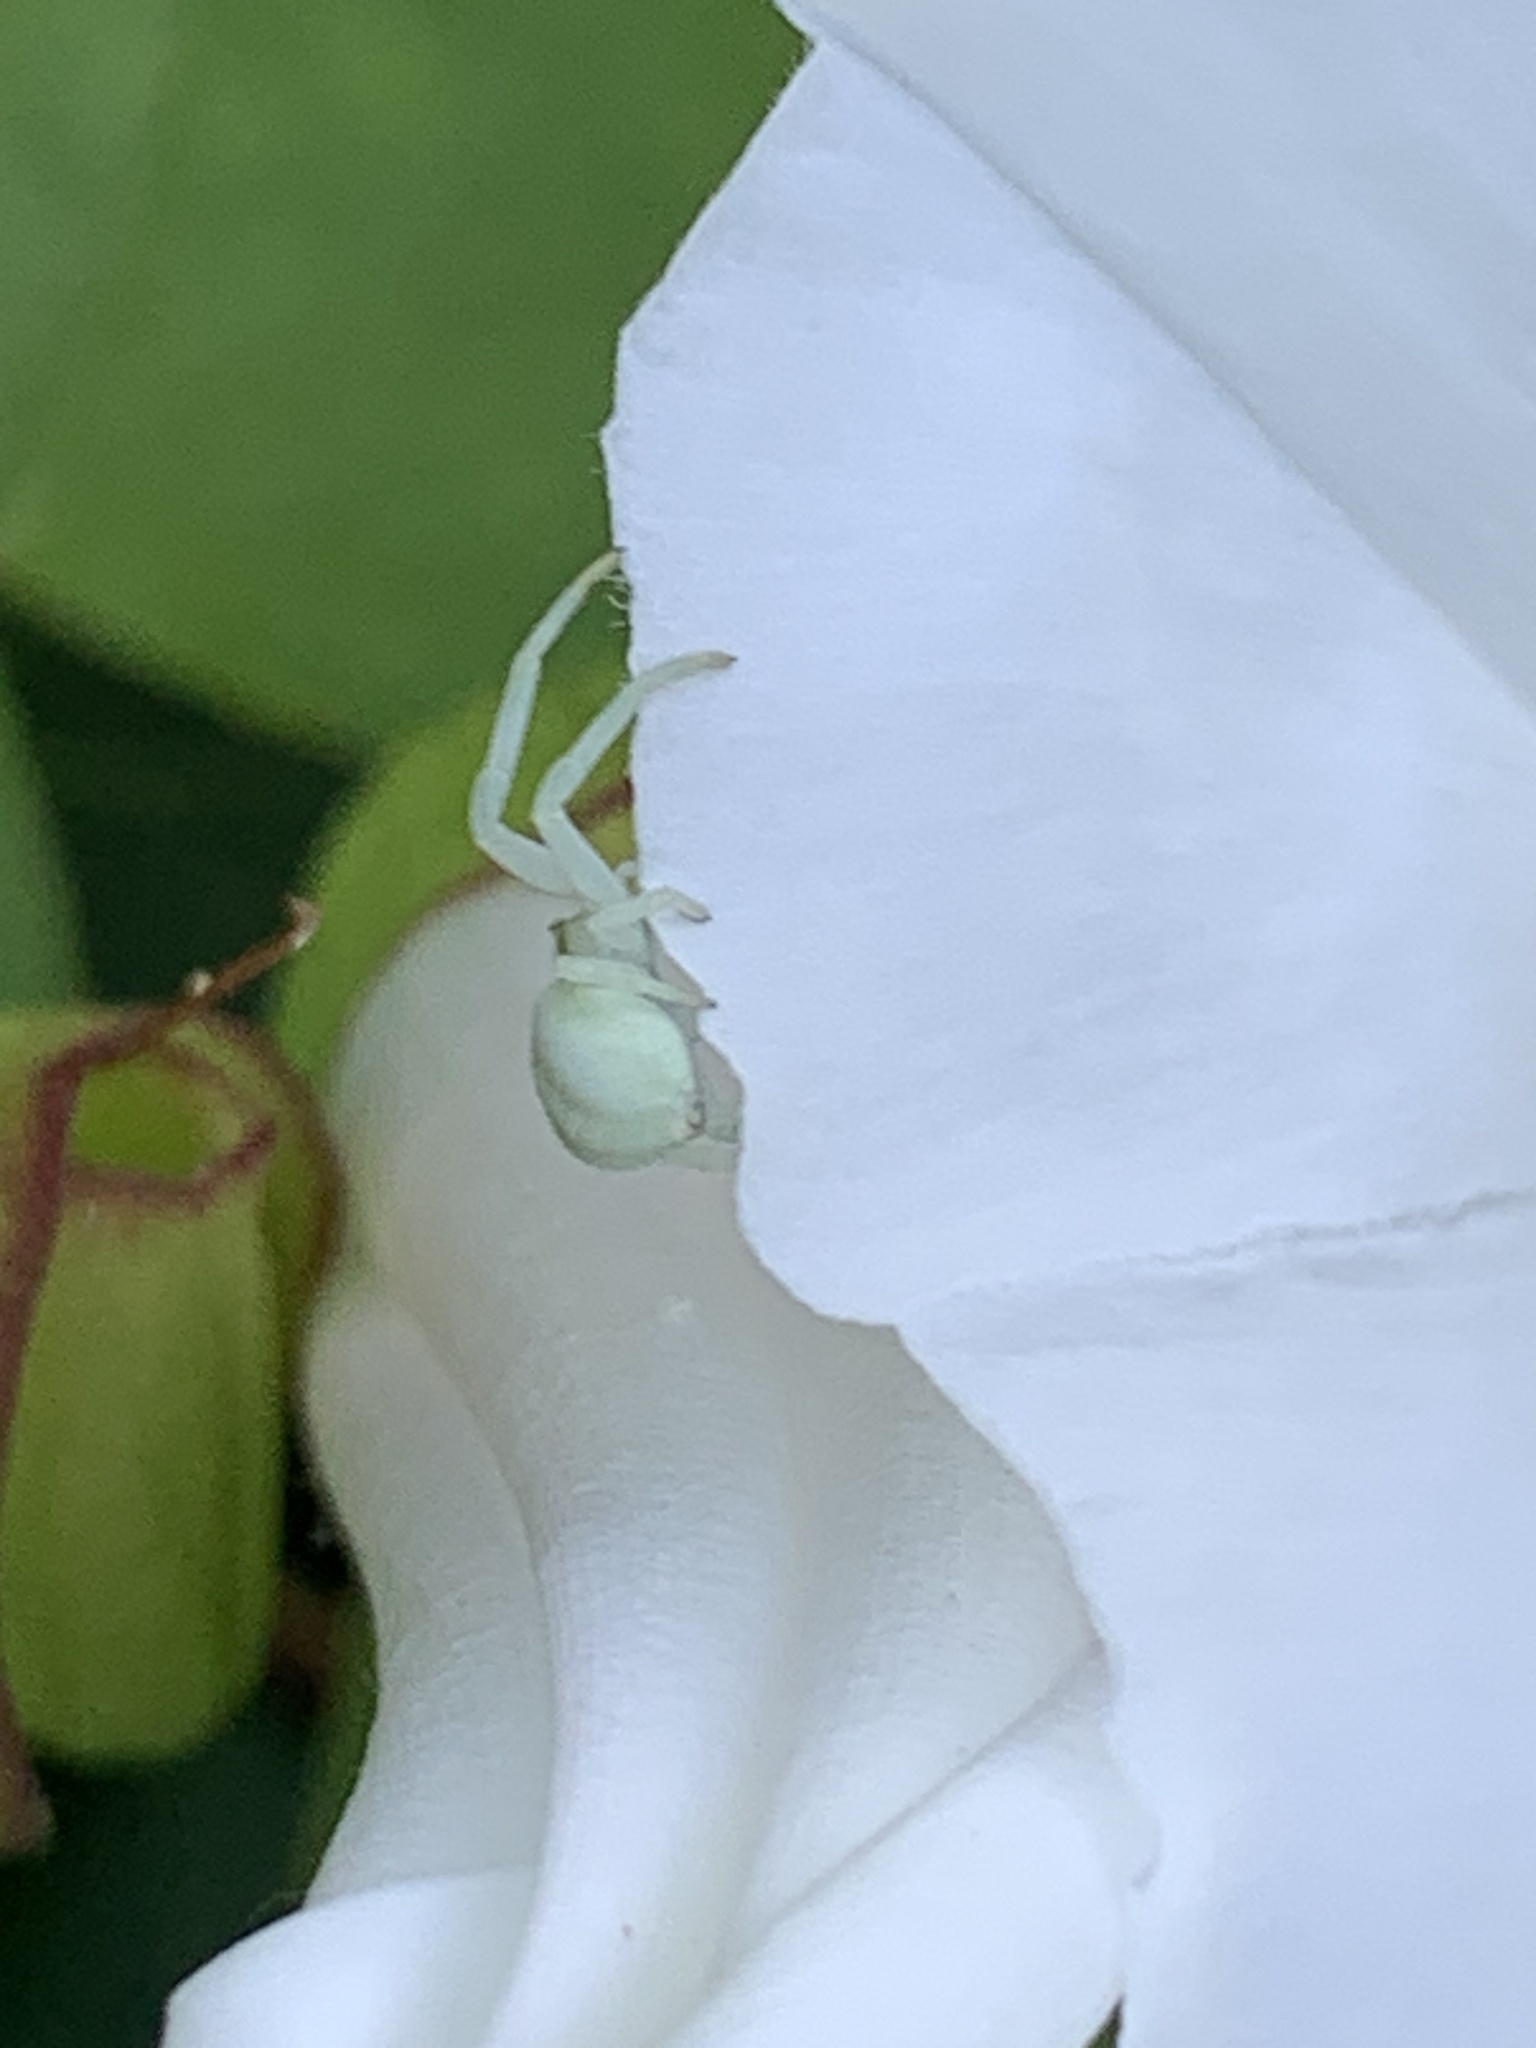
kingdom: Animalia
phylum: Arthropoda
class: Arachnida
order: Araneae
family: Thomisidae
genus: Misumena
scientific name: Misumena vatia
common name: Goldenrod crab spider
